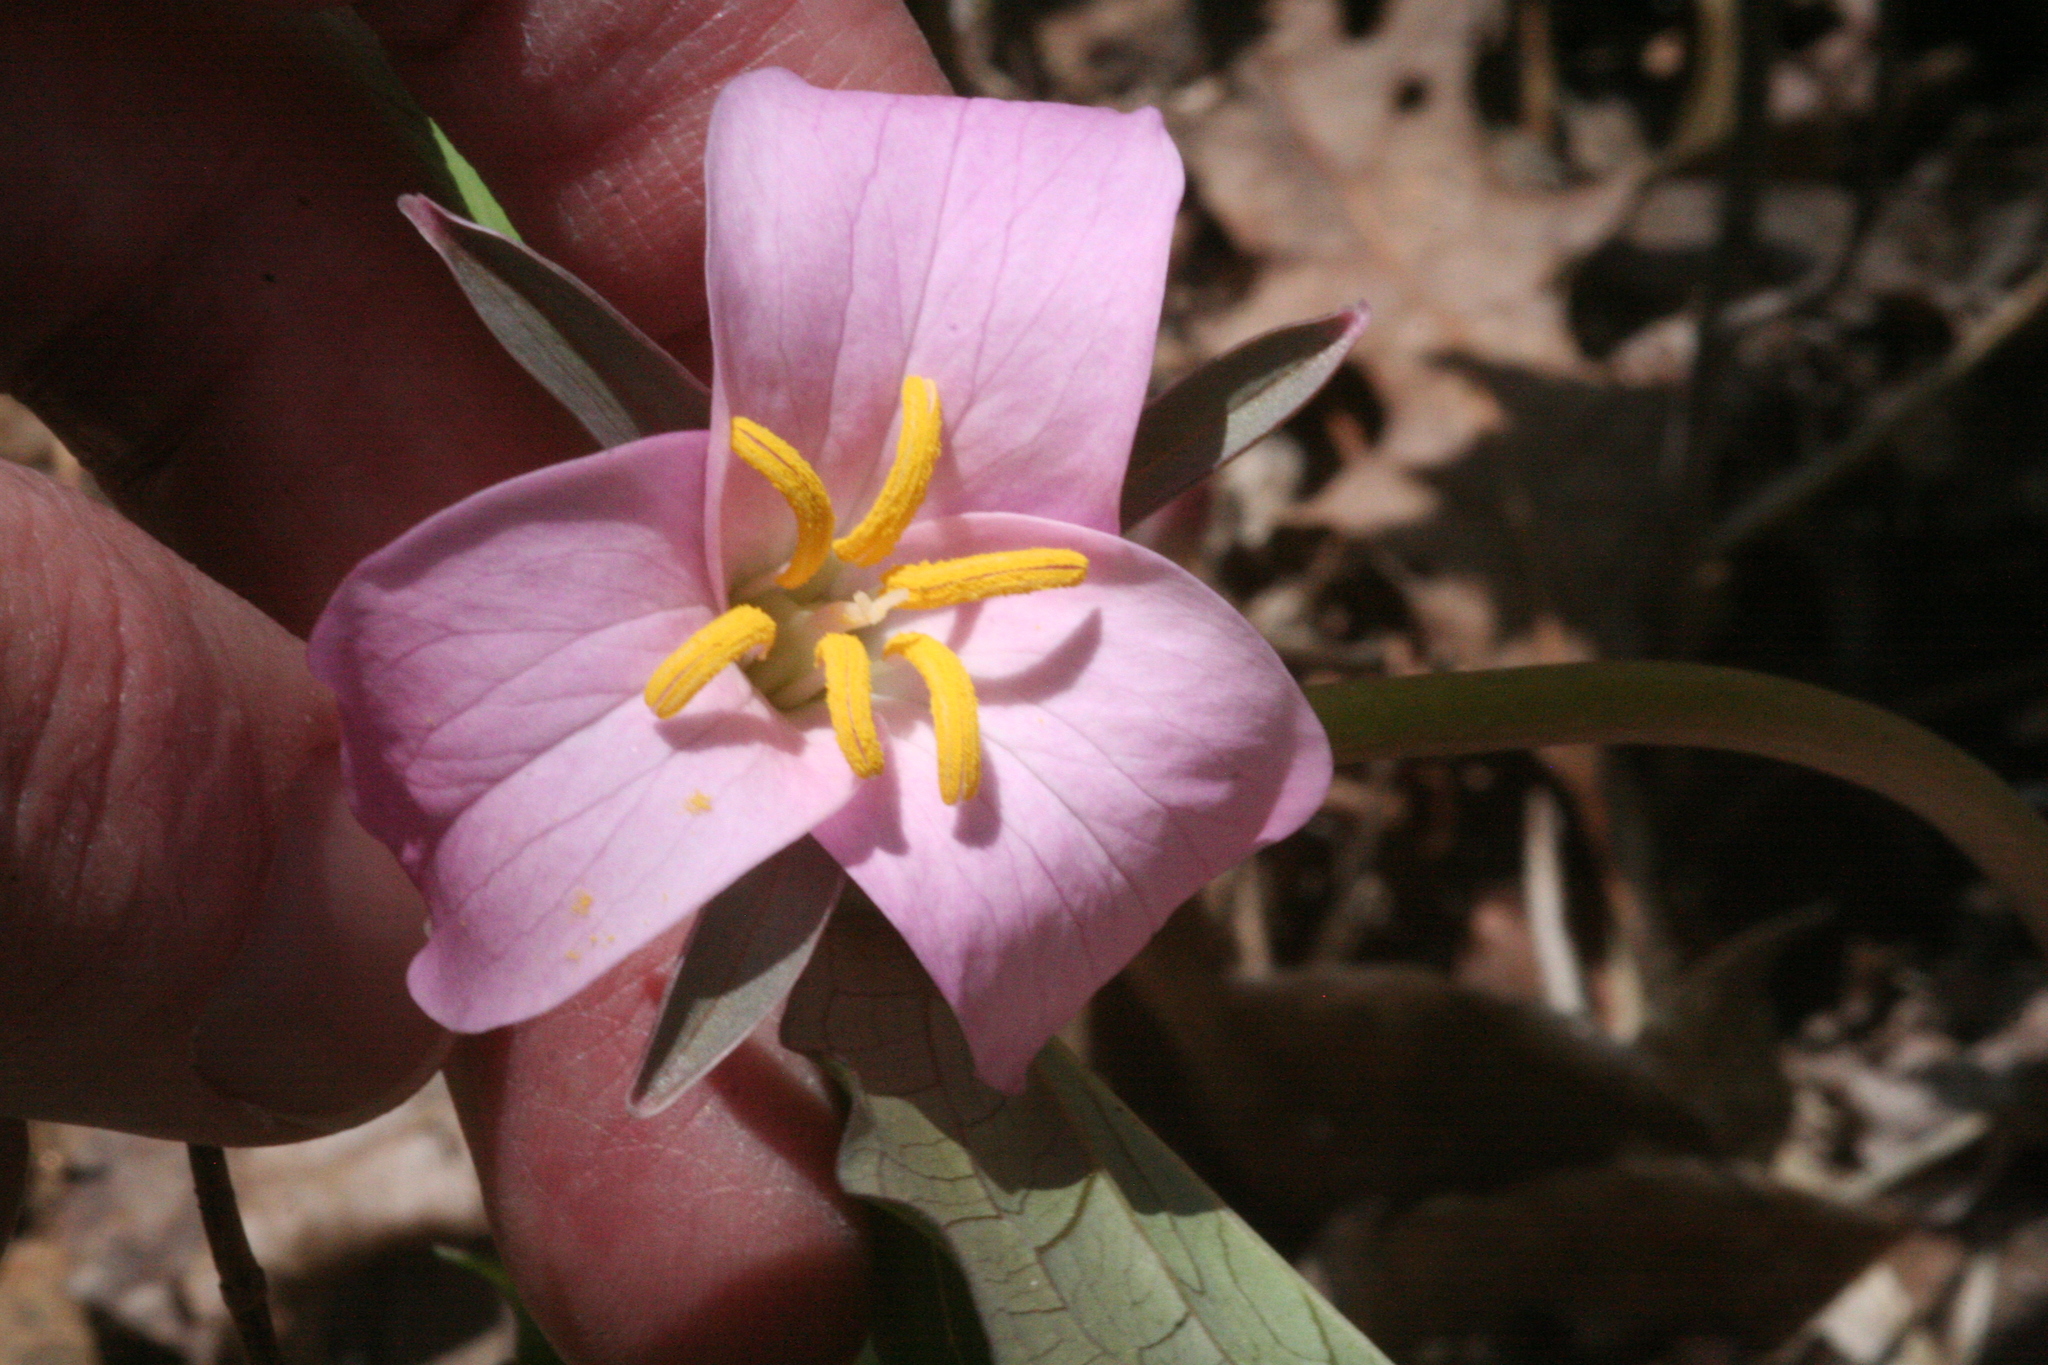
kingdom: Plantae
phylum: Tracheophyta
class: Liliopsida
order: Liliales
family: Melanthiaceae
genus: Trillium
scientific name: Trillium catesbaei
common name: Bashful trillium
